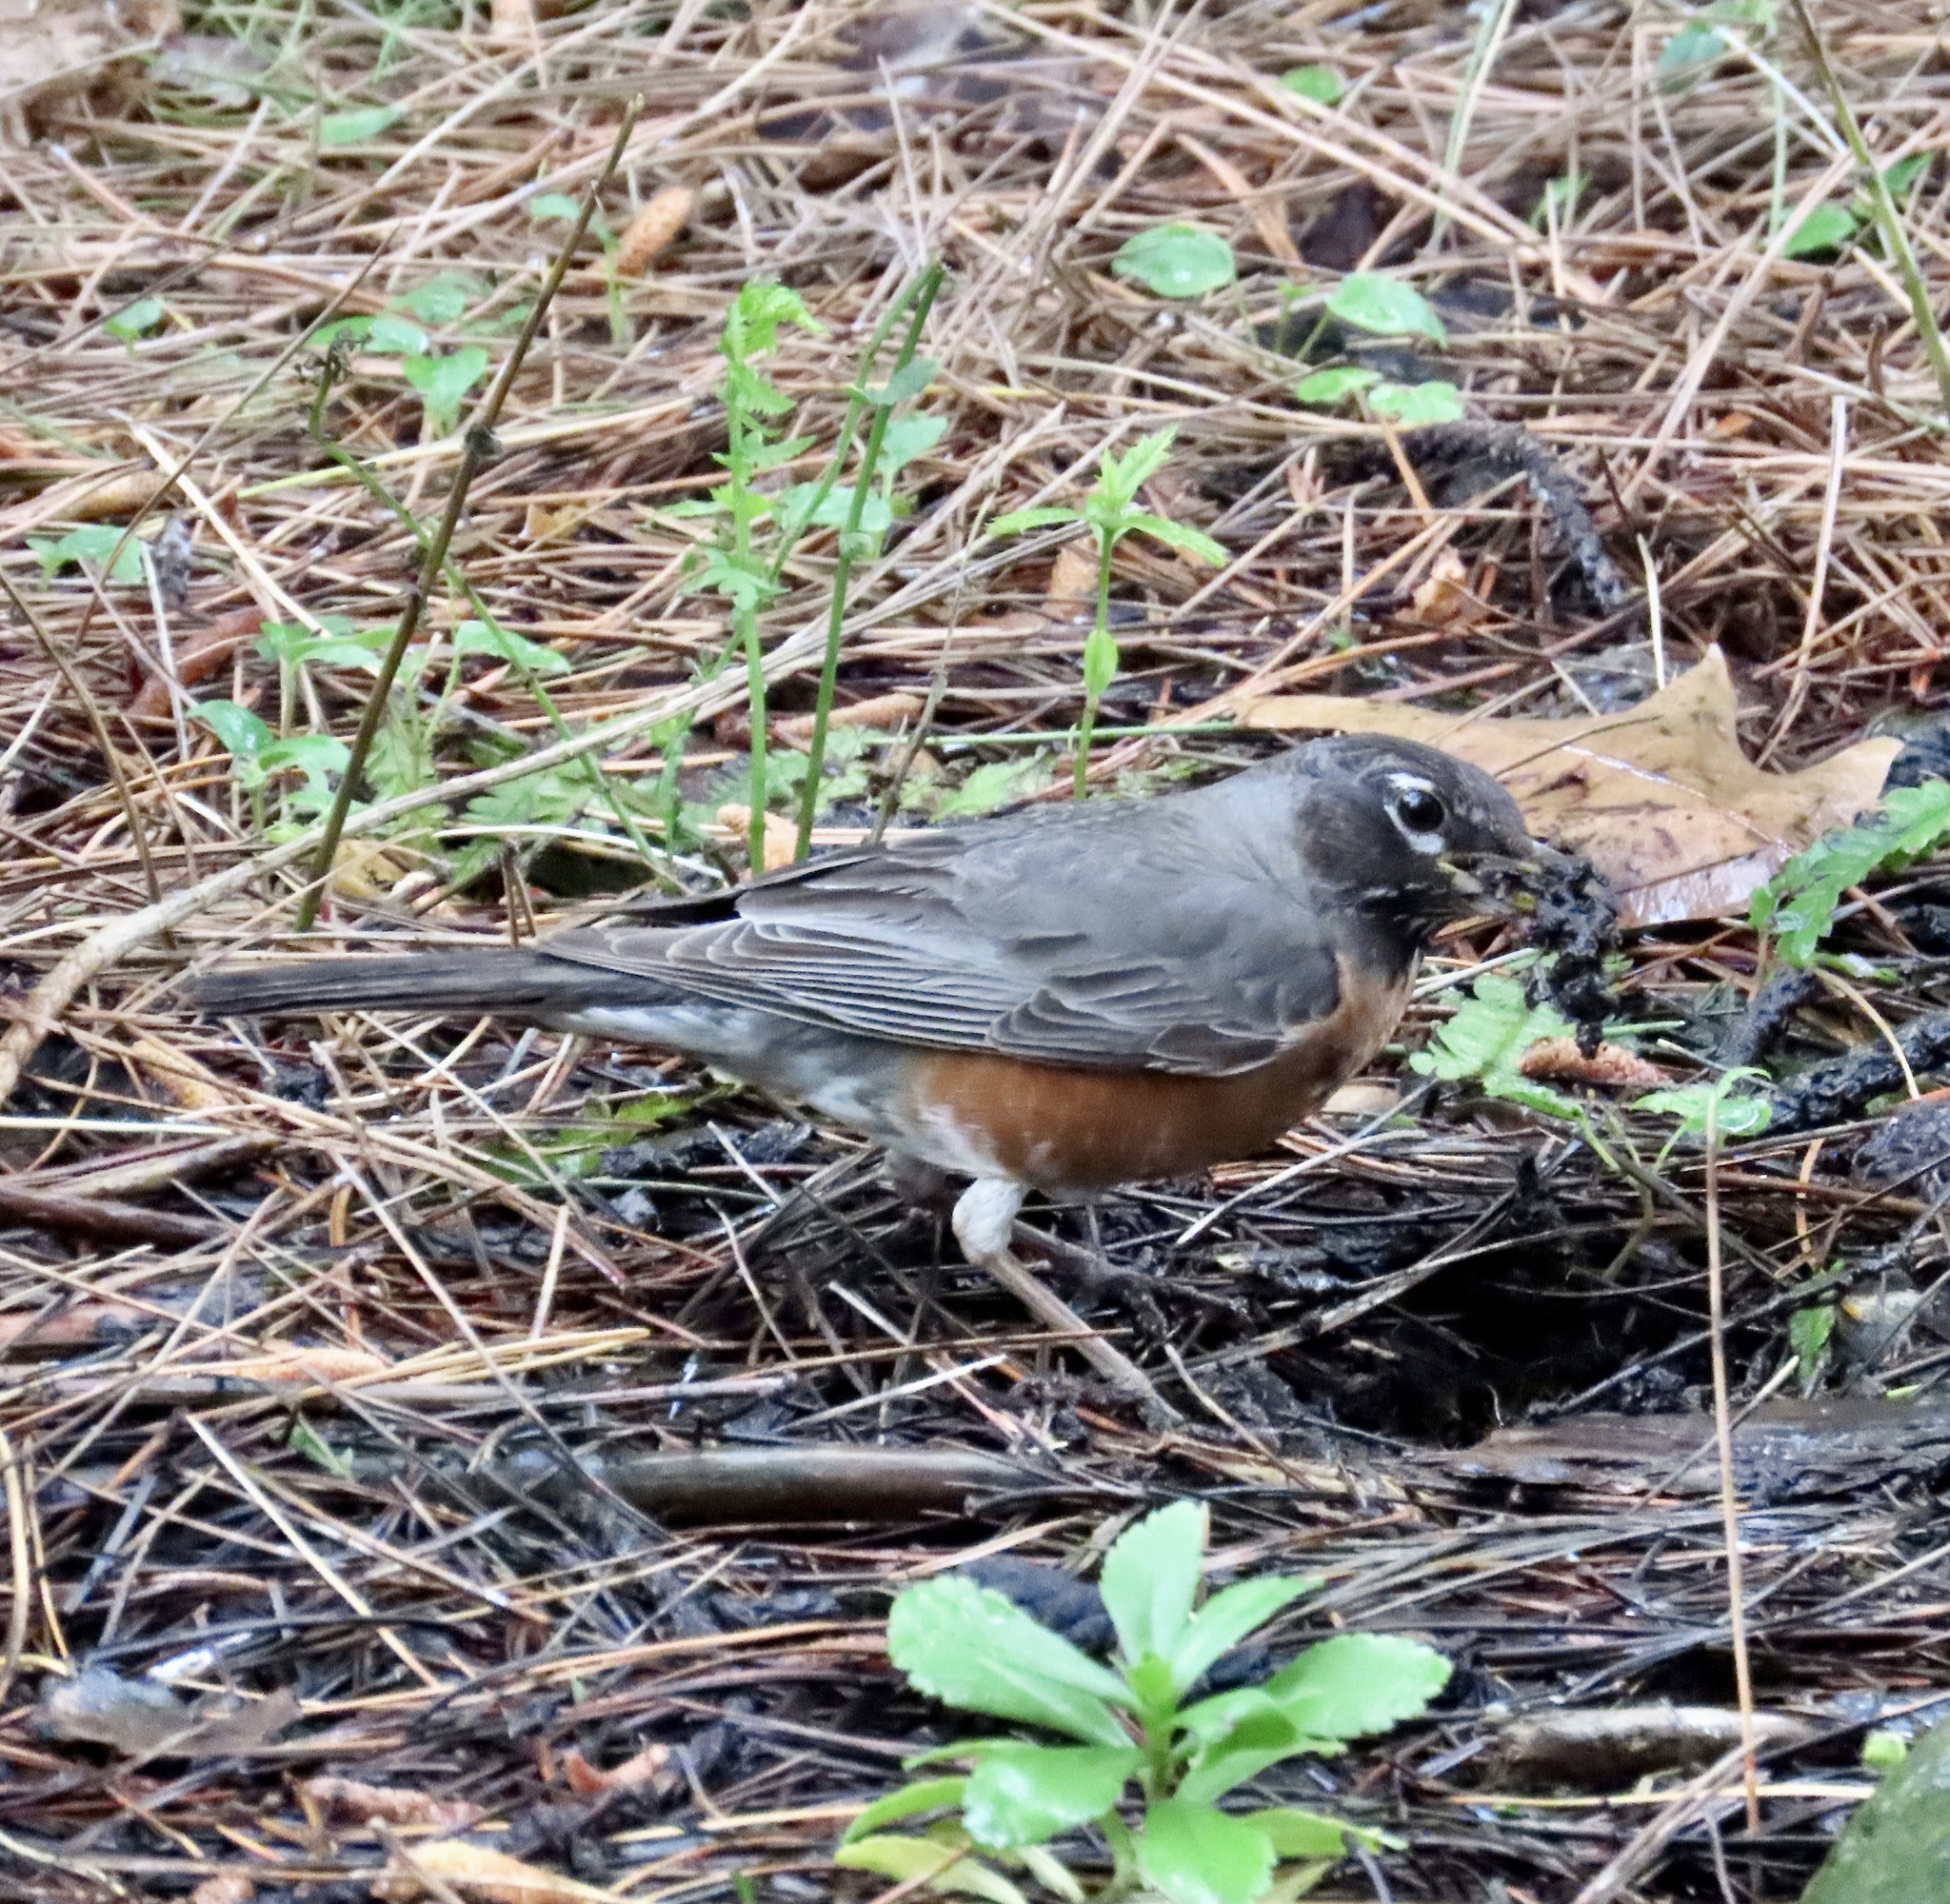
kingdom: Animalia
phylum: Chordata
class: Aves
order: Passeriformes
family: Turdidae
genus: Turdus
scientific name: Turdus migratorius
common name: American robin
